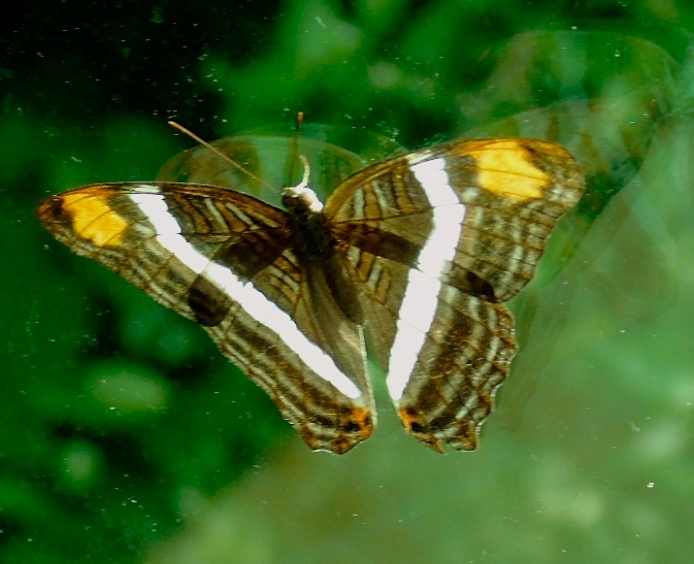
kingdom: Animalia
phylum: Arthropoda
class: Insecta
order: Lepidoptera
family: Nymphalidae
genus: Limenitis
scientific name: Limenitis fessonia
